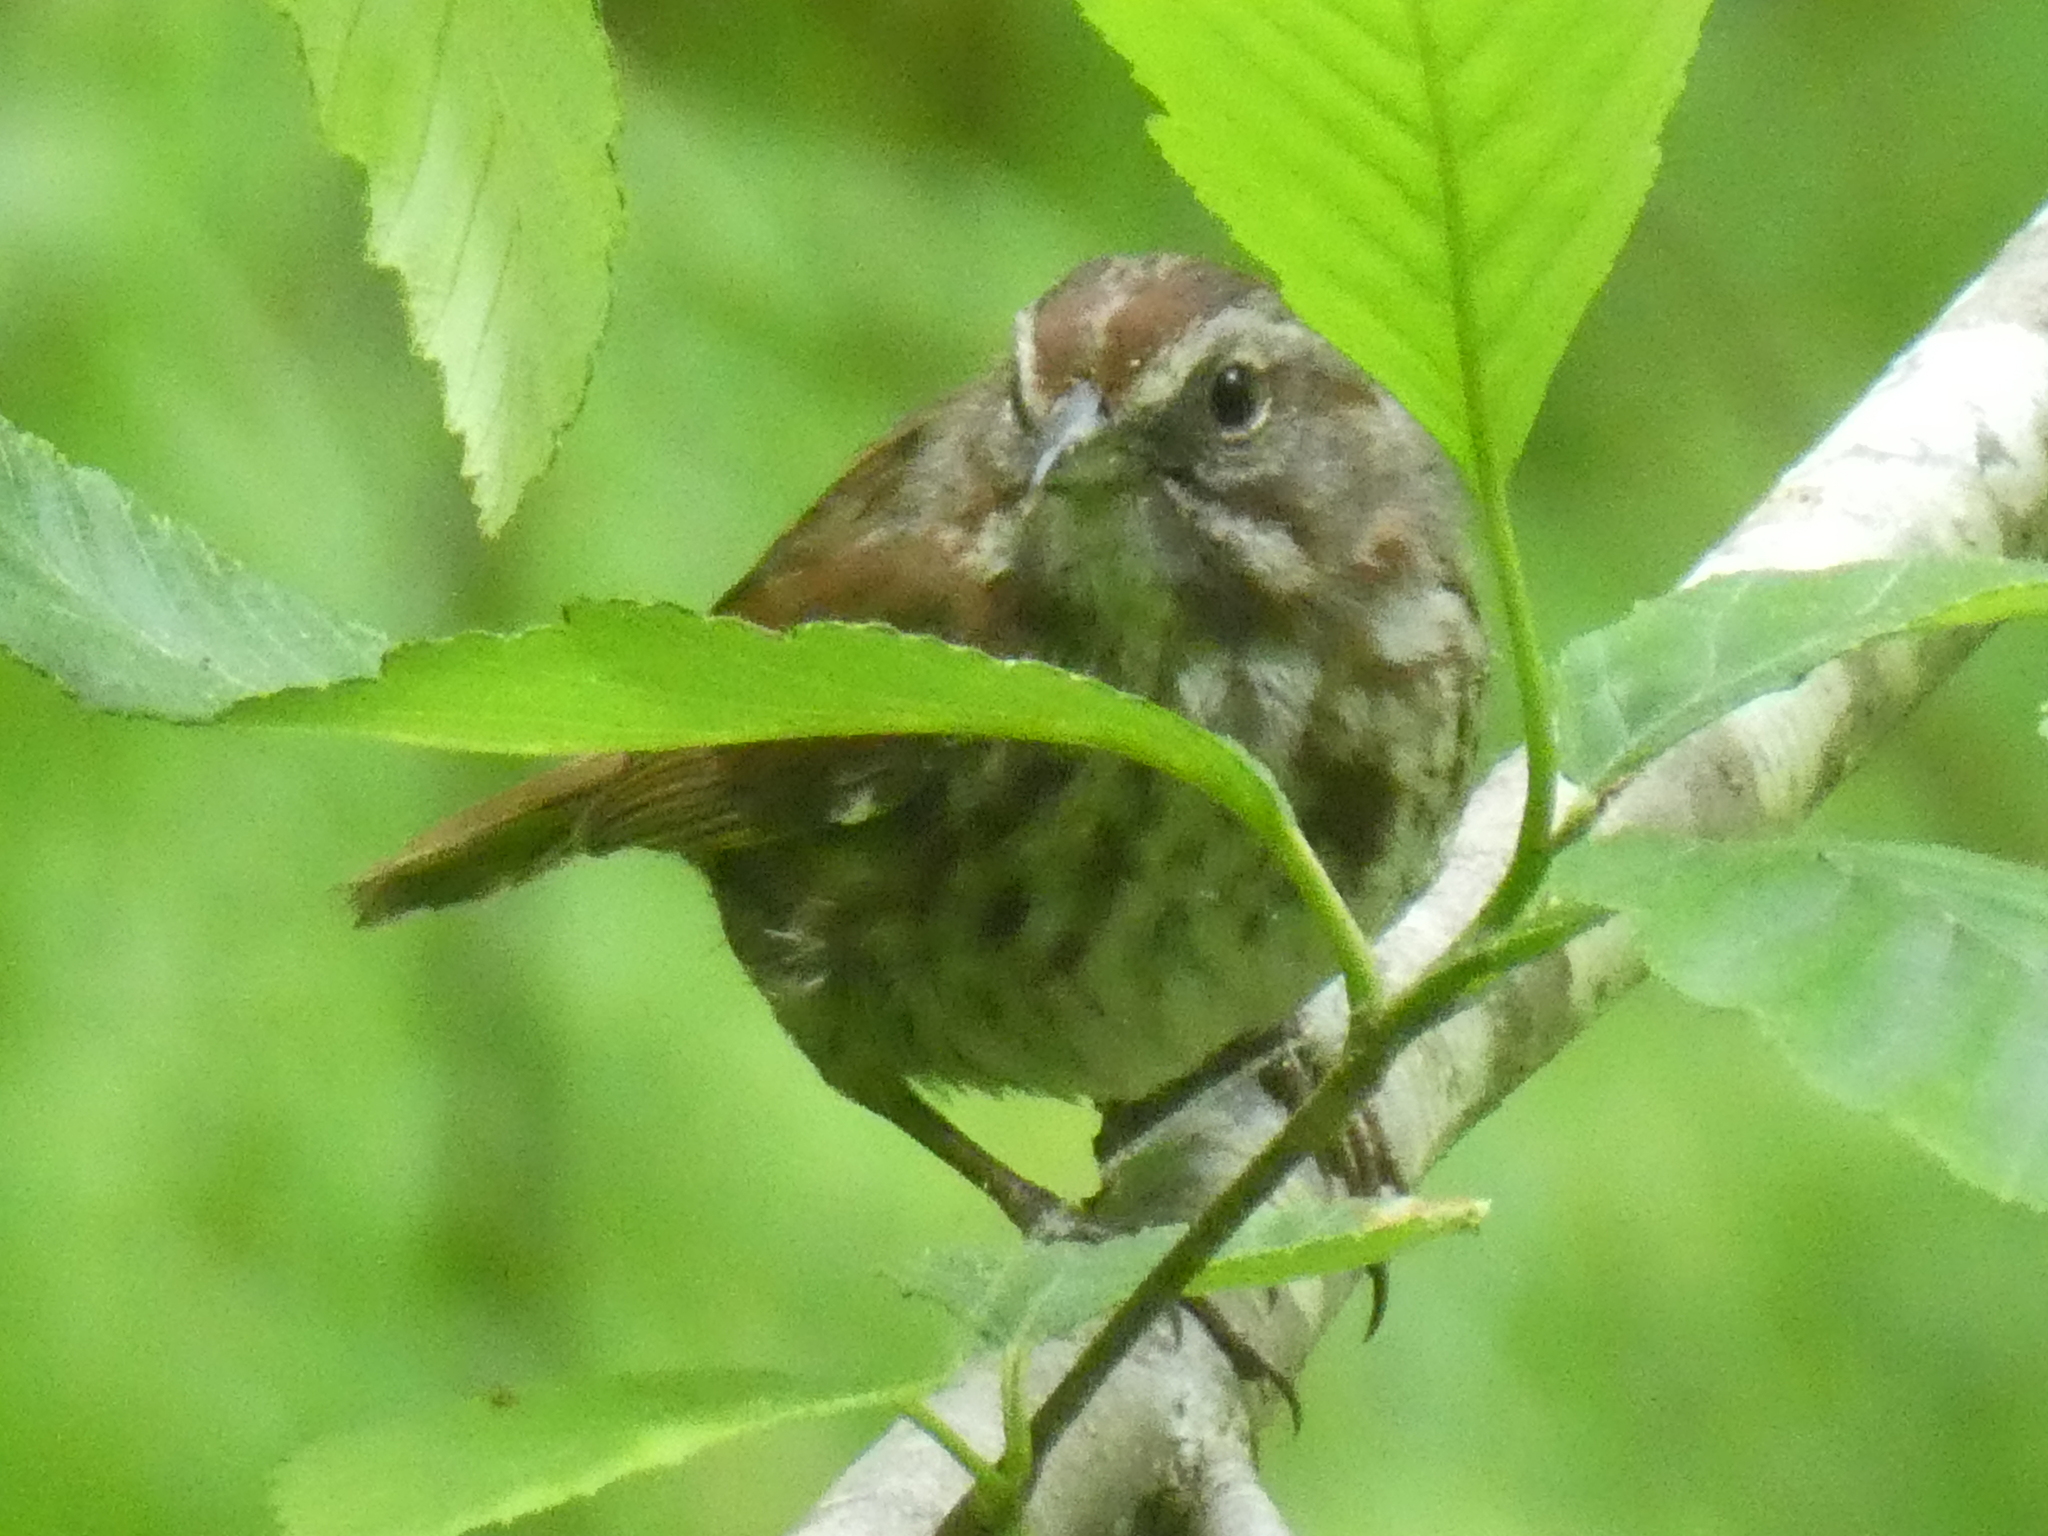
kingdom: Animalia
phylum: Chordata
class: Aves
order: Passeriformes
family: Passerellidae
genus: Melospiza
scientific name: Melospiza melodia
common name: Song sparrow
